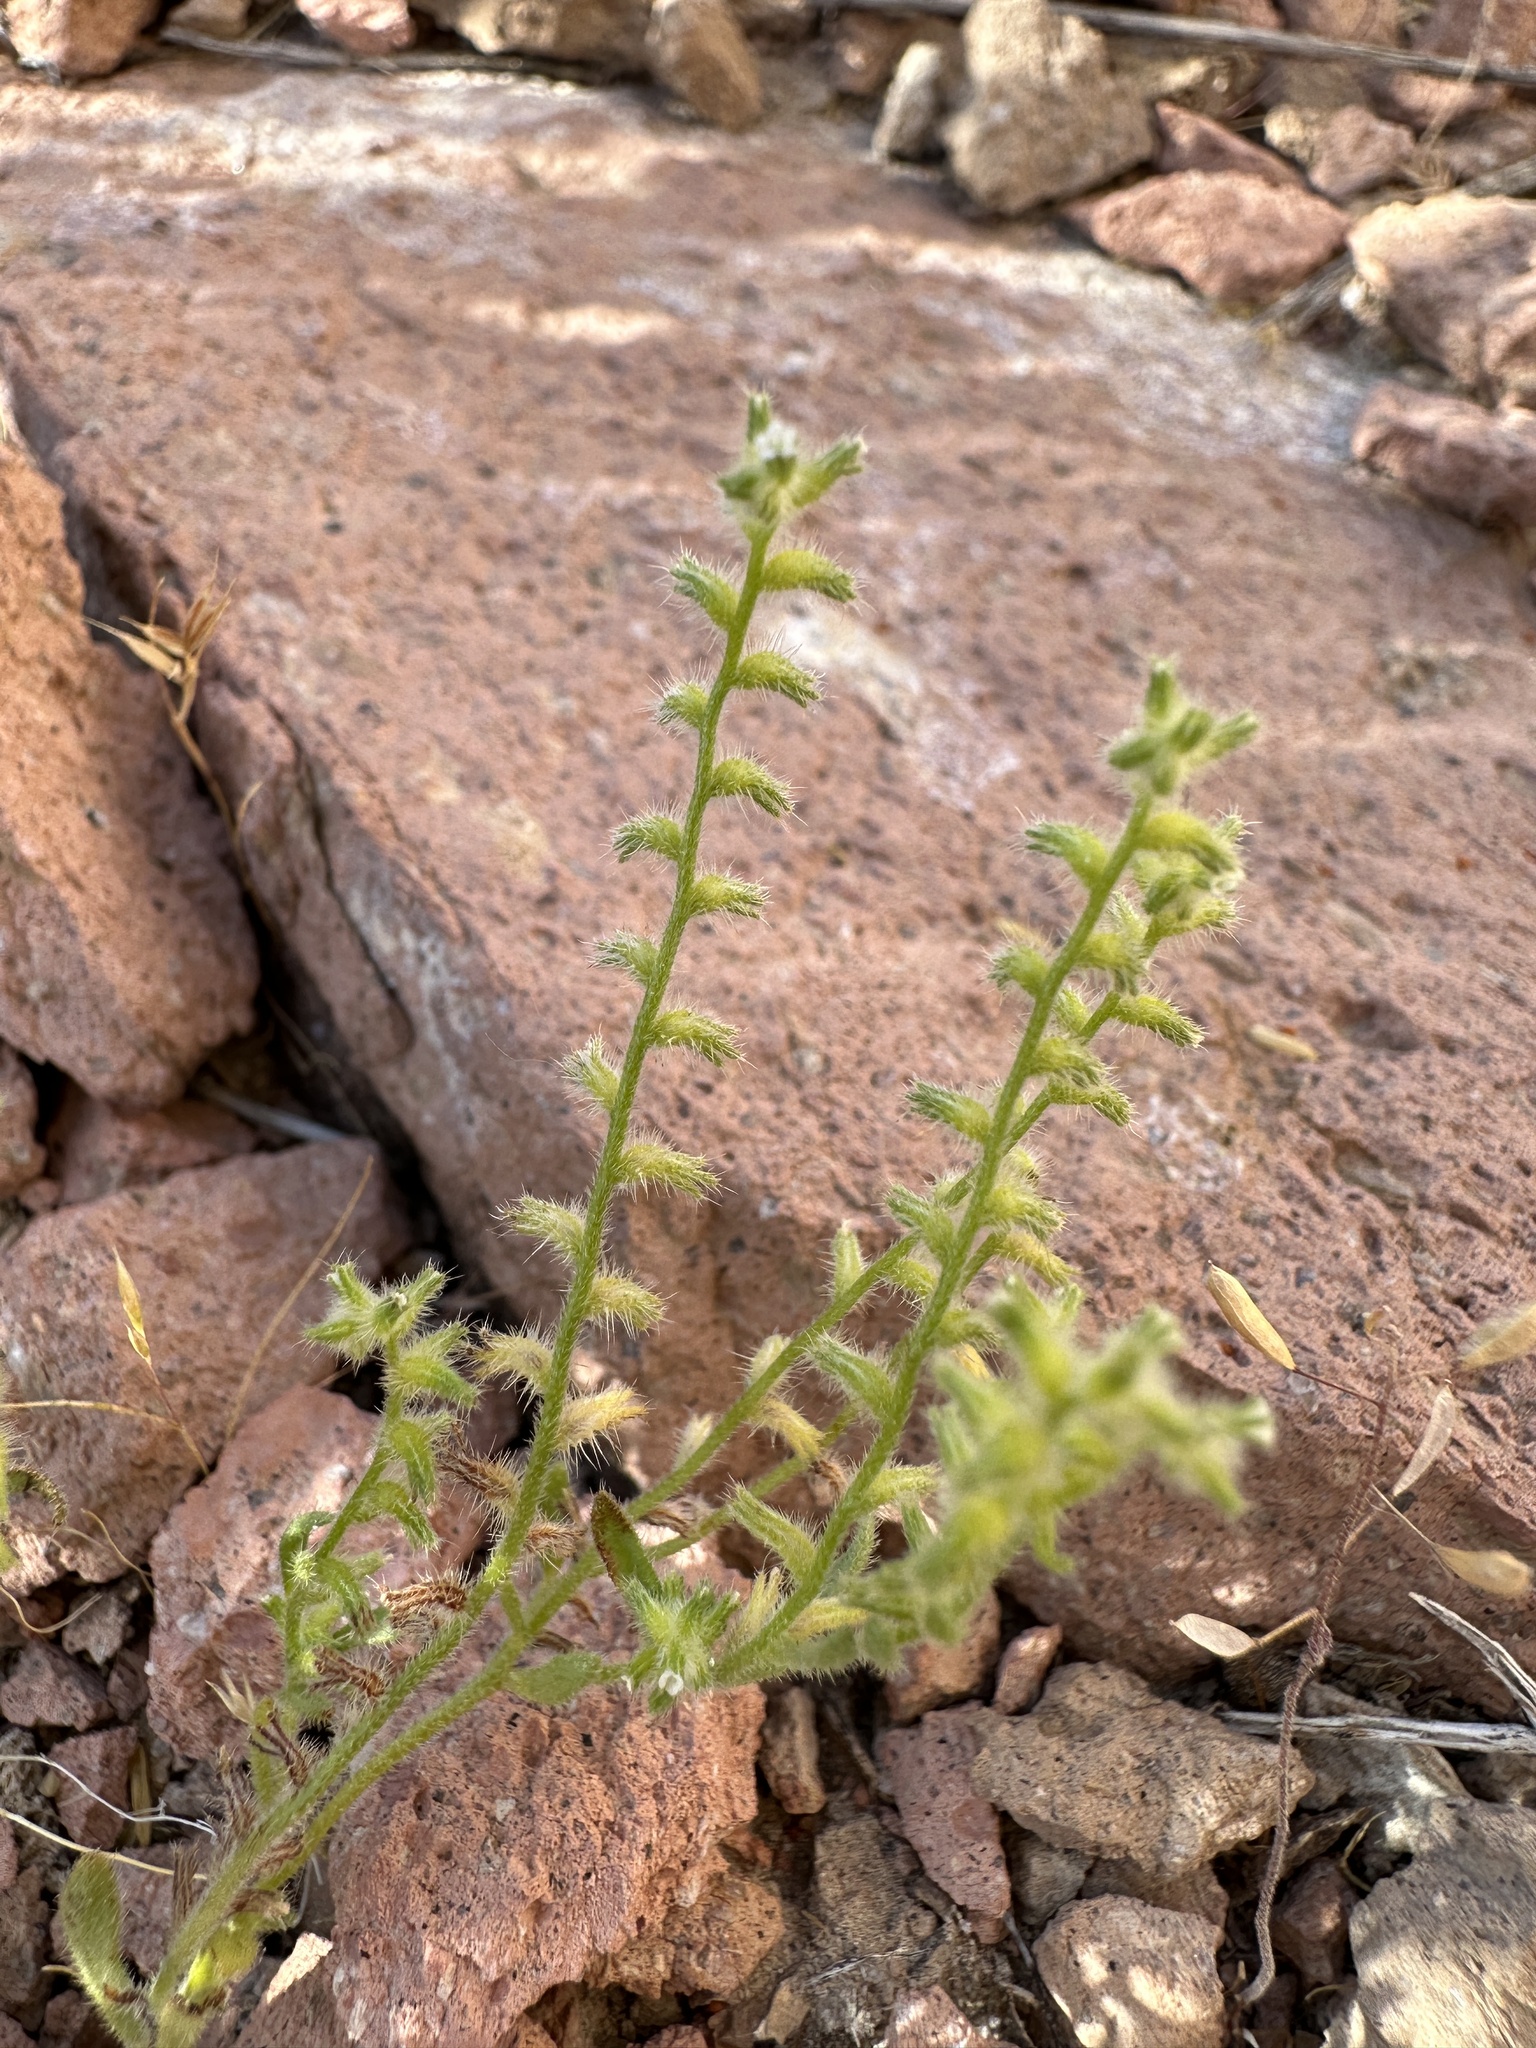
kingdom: Plantae
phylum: Tracheophyta
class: Magnoliopsida
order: Boraginales
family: Boraginaceae
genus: Cryptantha
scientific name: Cryptantha recurvata
